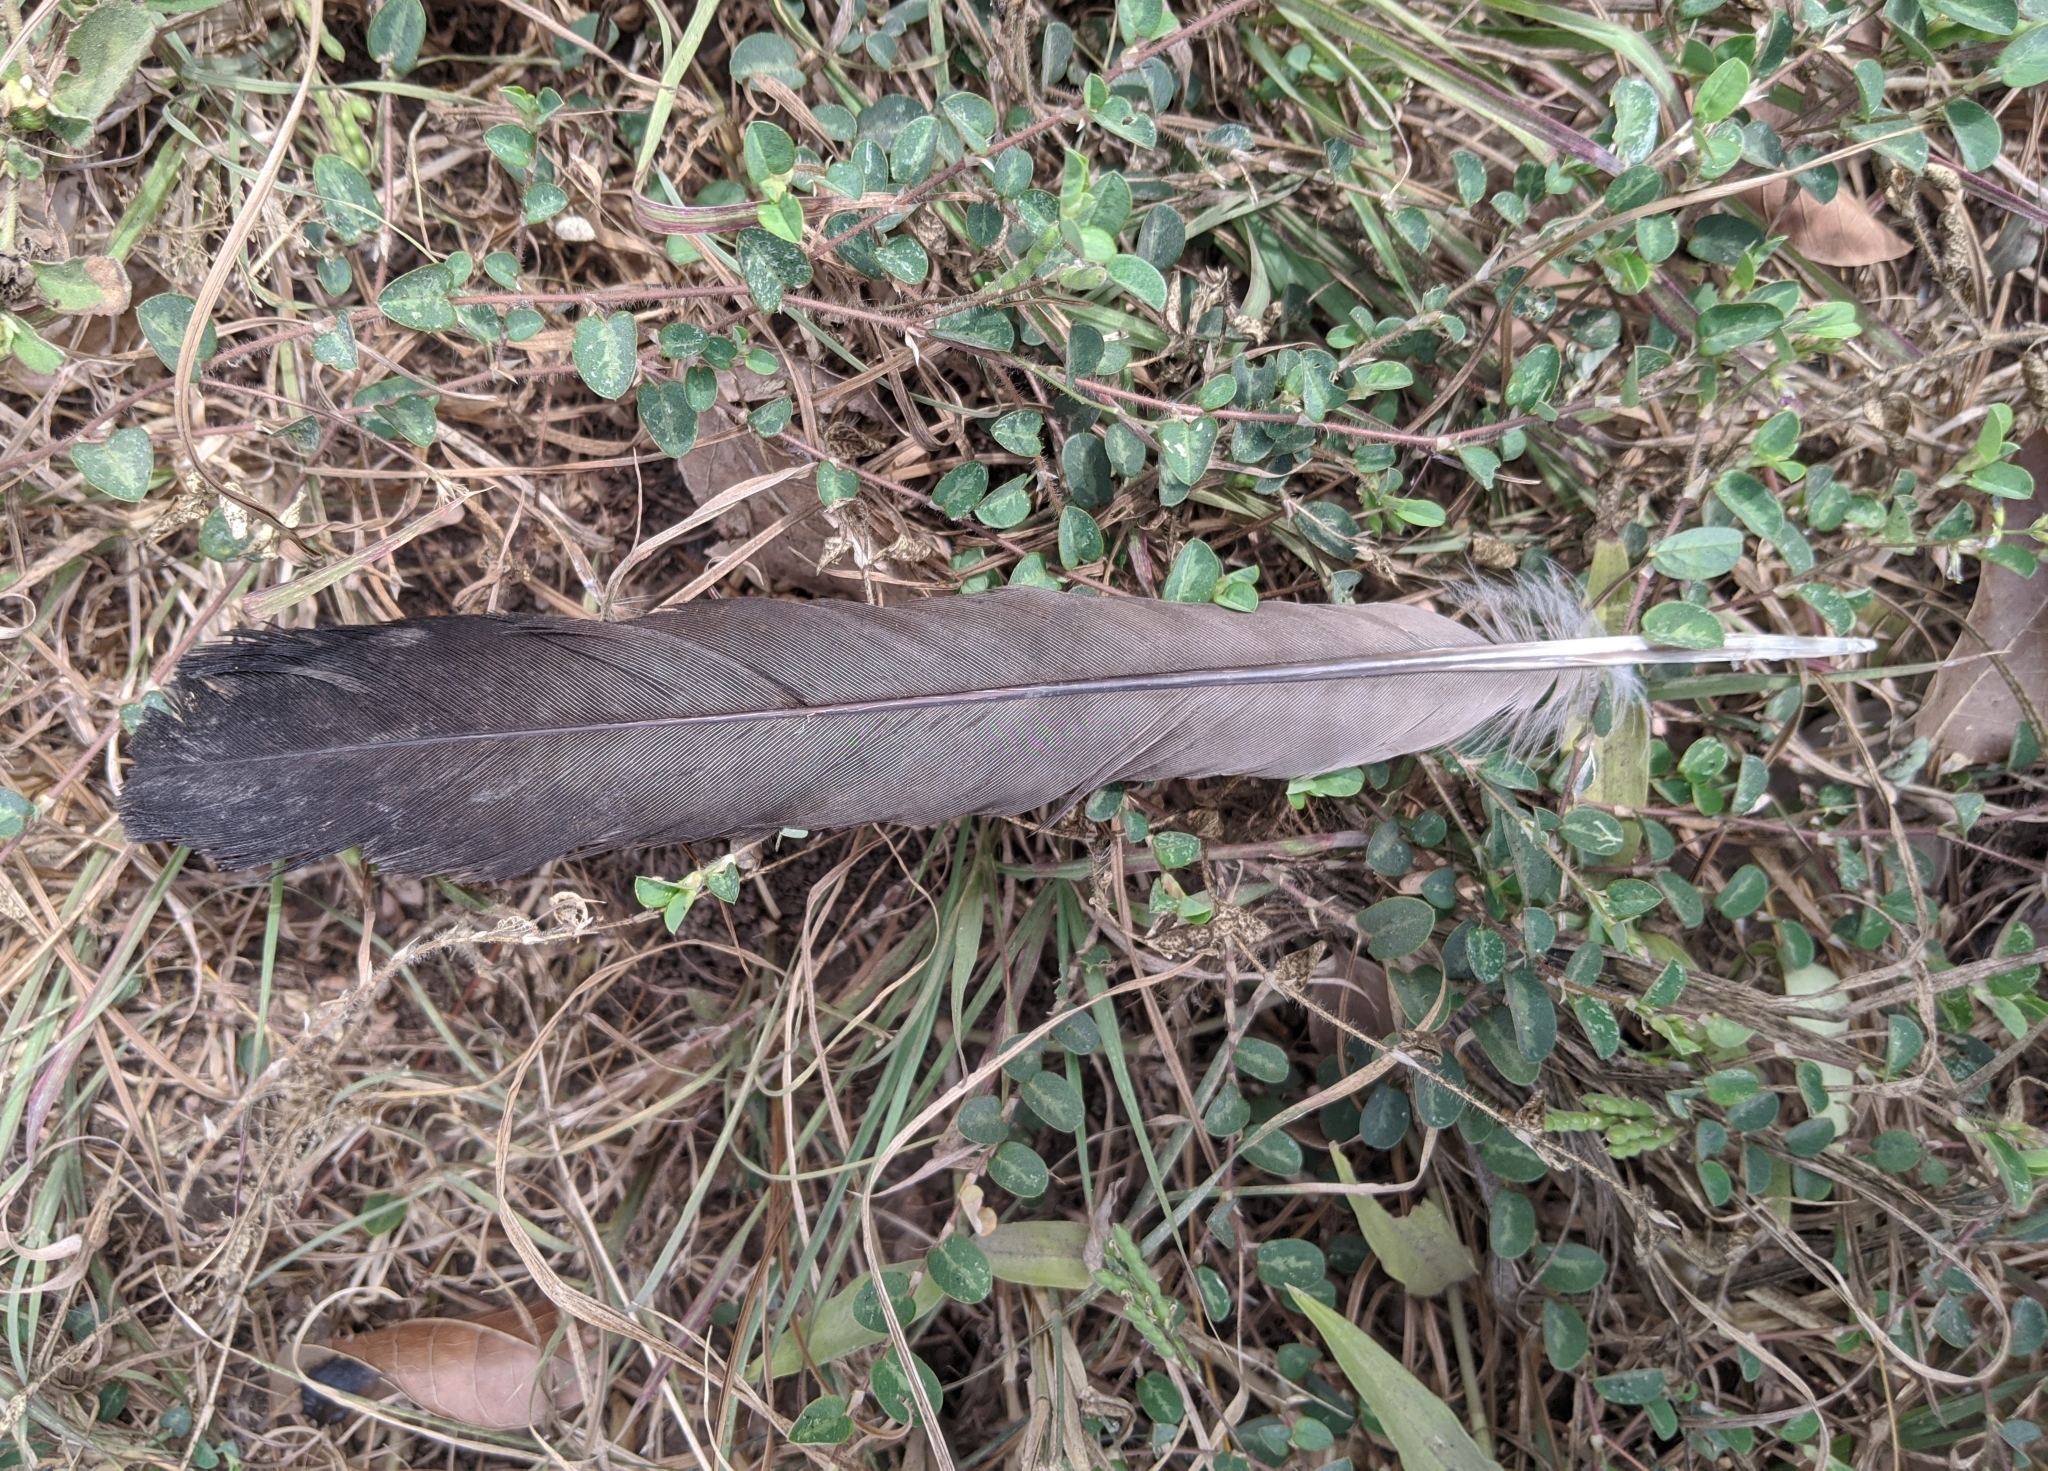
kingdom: Animalia
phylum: Chordata
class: Aves
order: Musophagiformes
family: Musophagidae
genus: Crinifer
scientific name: Crinifer piscator
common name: Western plantain-eater
